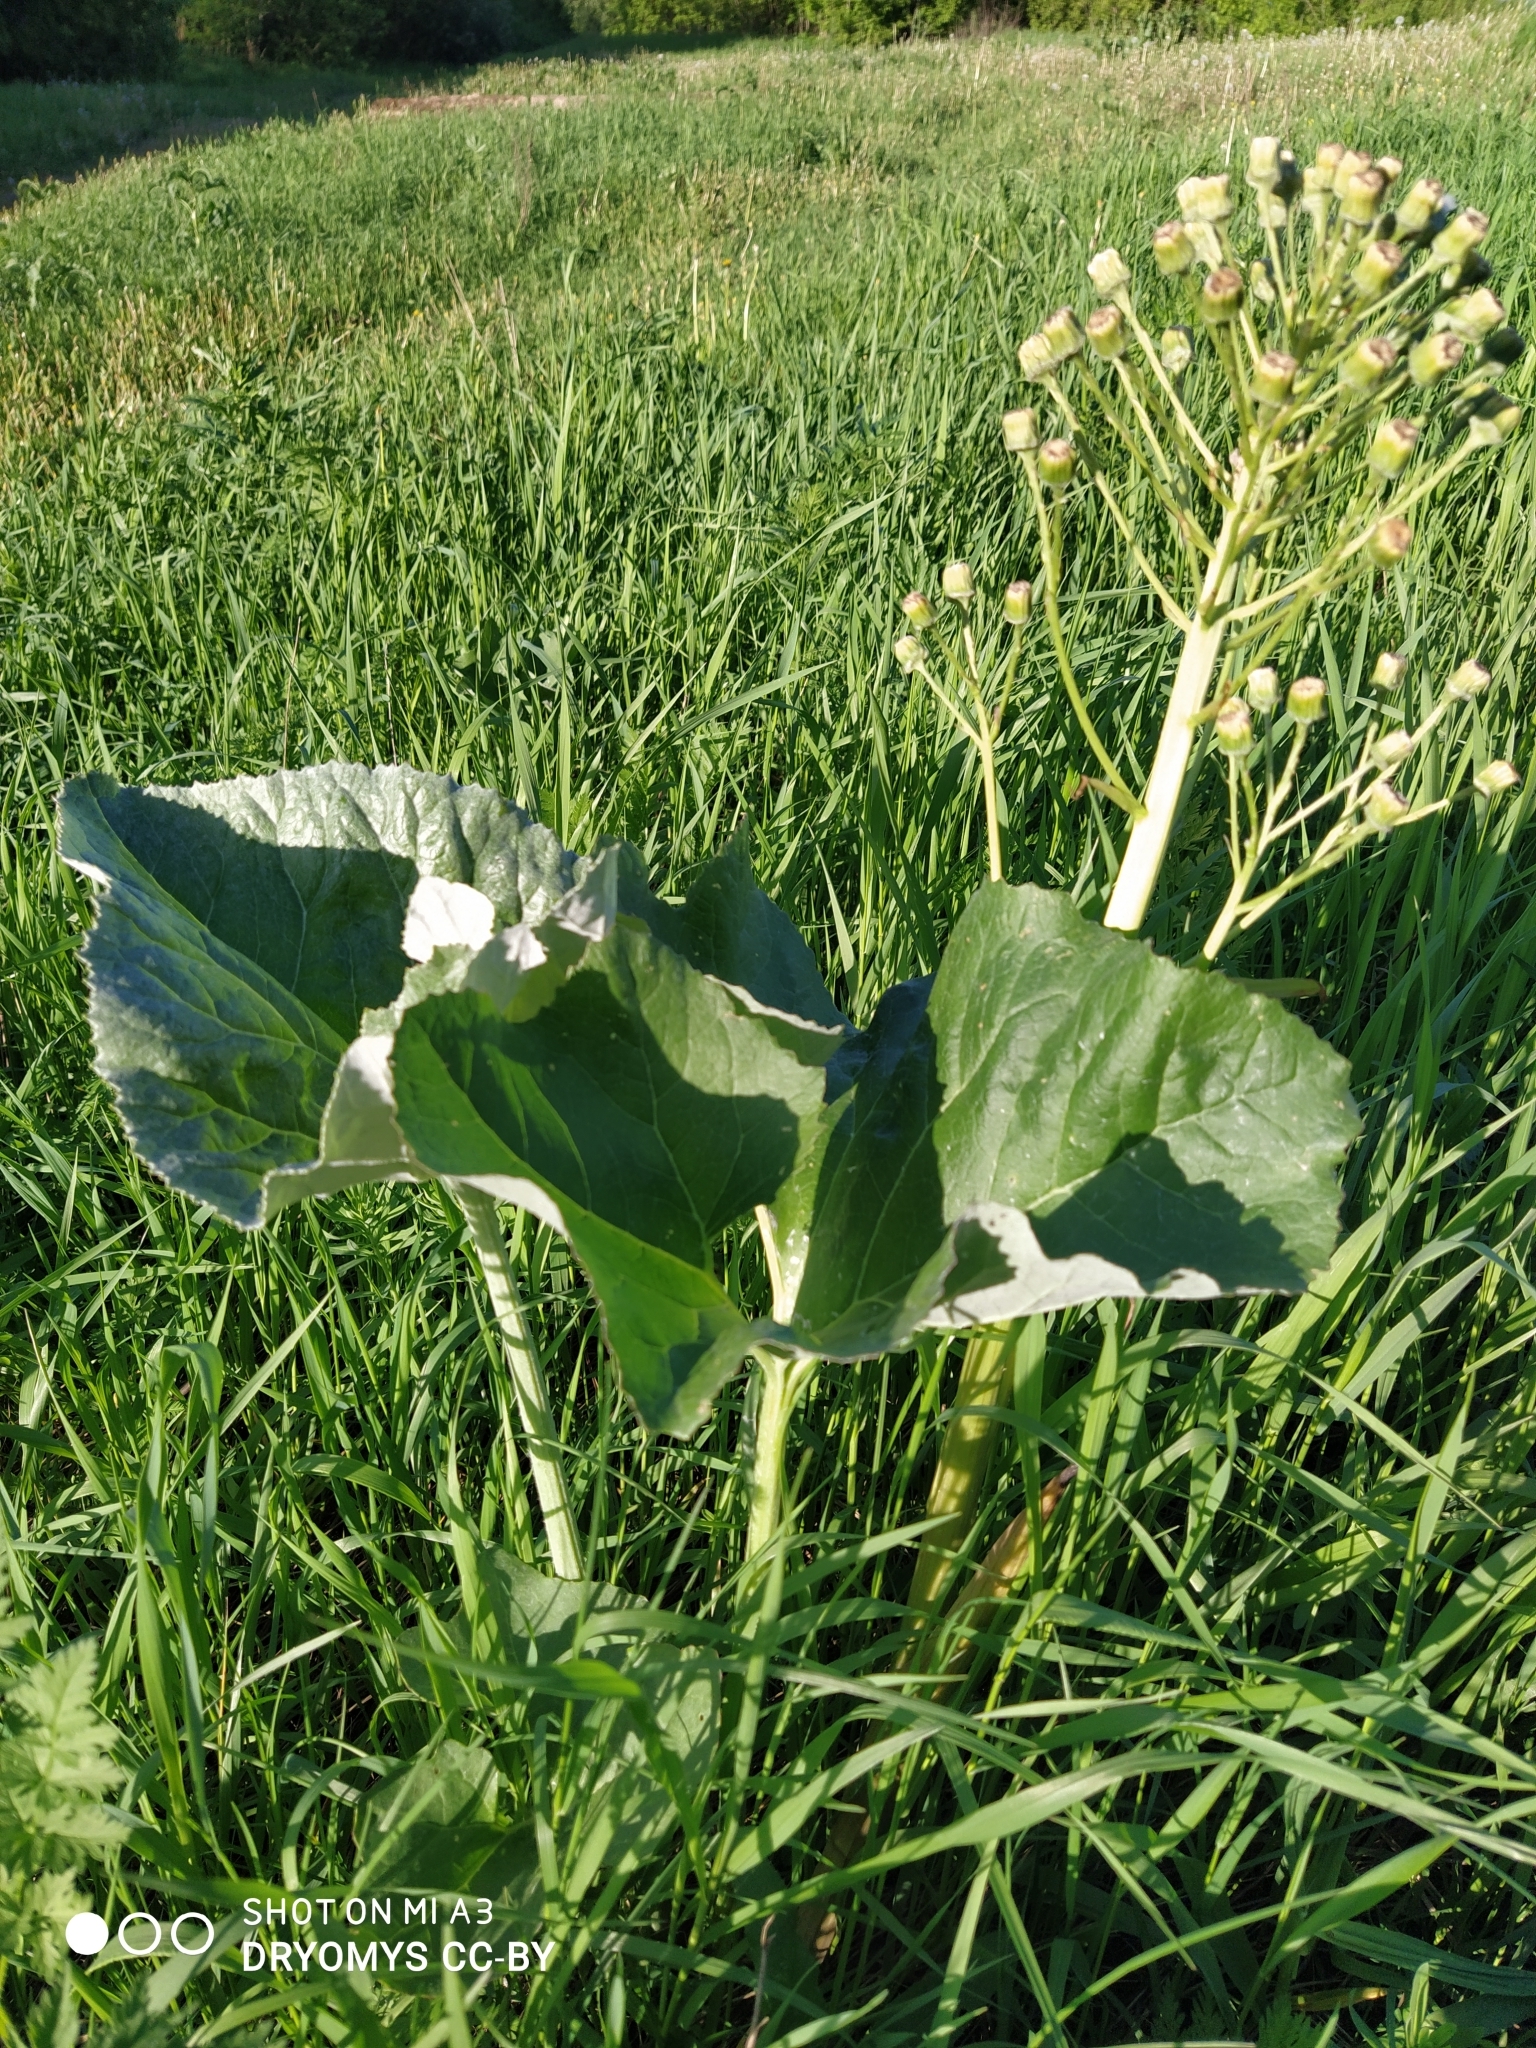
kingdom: Plantae
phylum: Tracheophyta
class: Magnoliopsida
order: Asterales
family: Asteraceae
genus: Petasites
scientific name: Petasites spurius
